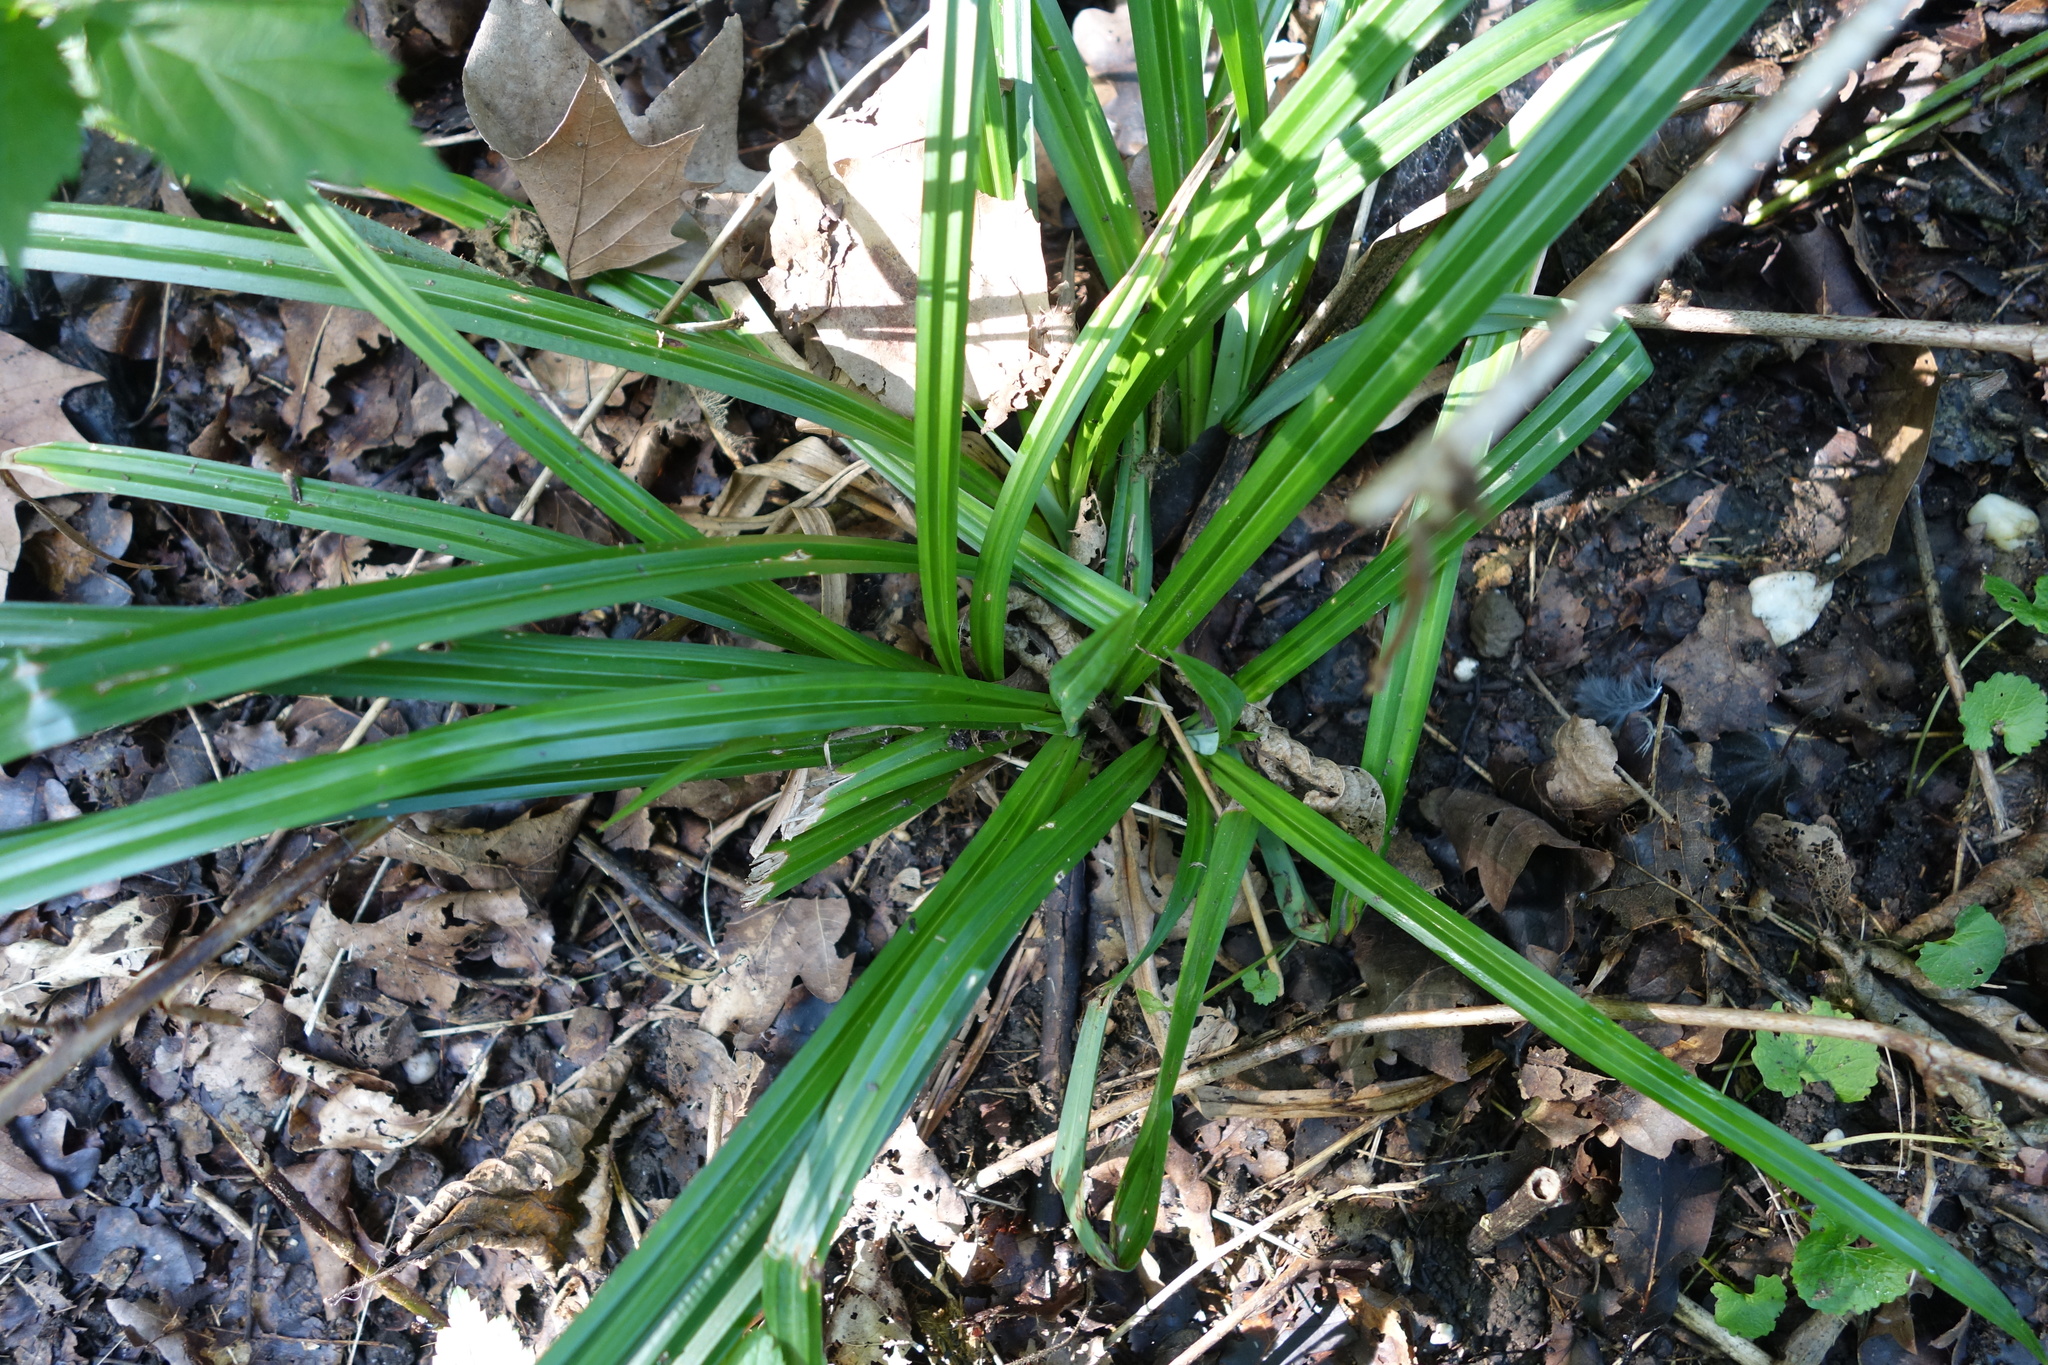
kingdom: Plantae
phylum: Tracheophyta
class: Liliopsida
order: Poales
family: Cyperaceae
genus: Carex
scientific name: Carex sylvatica
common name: Wood-sedge
